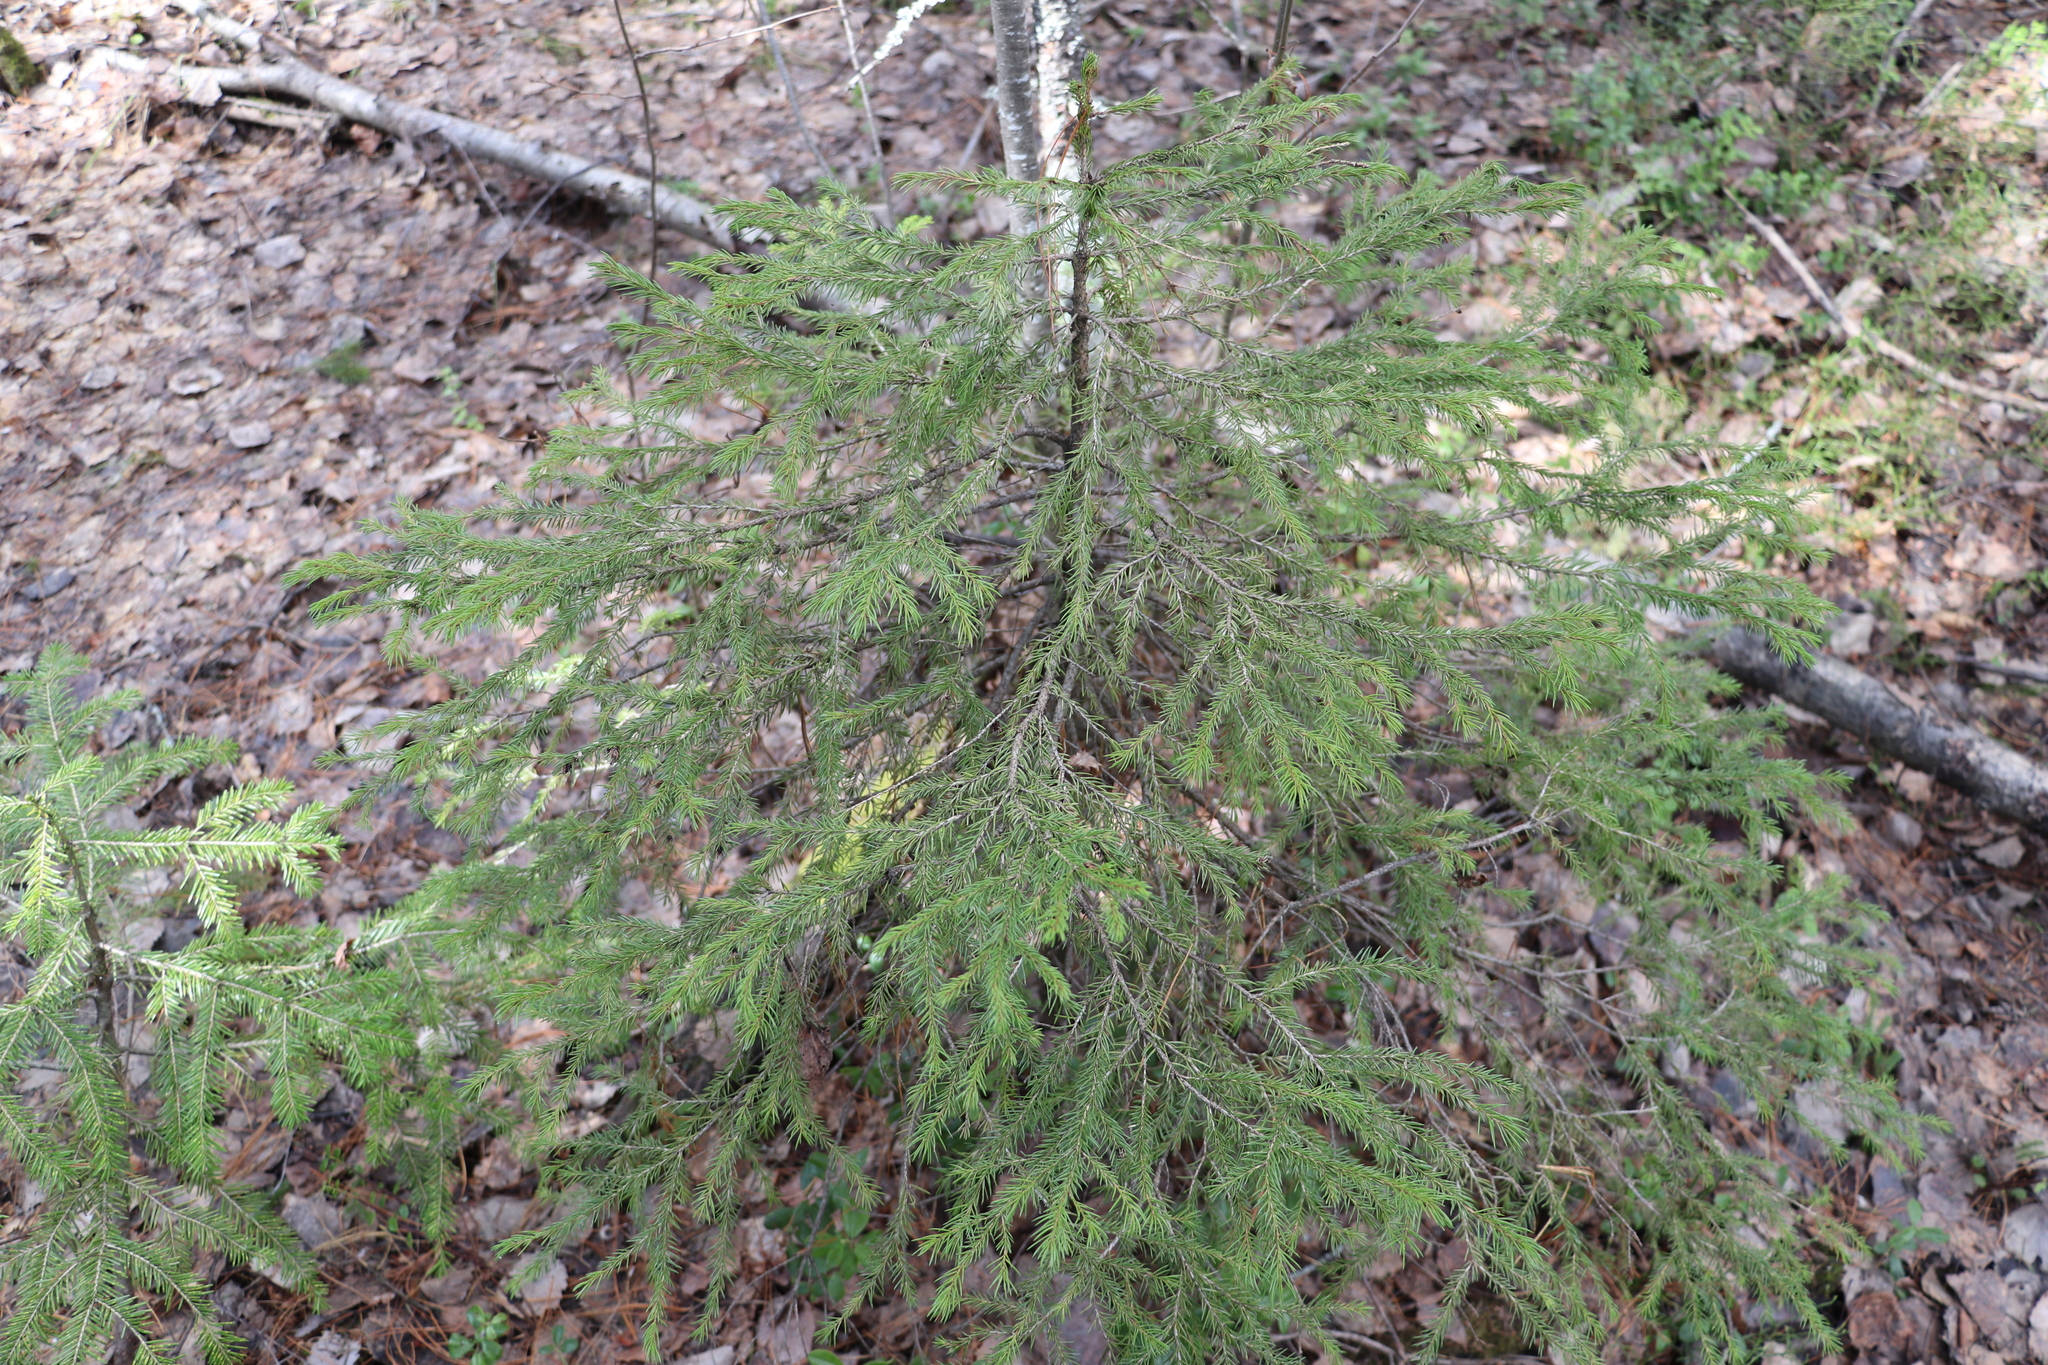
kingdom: Plantae
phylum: Tracheophyta
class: Pinopsida
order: Pinales
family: Pinaceae
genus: Picea
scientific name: Picea obovata
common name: Siberian spruce
